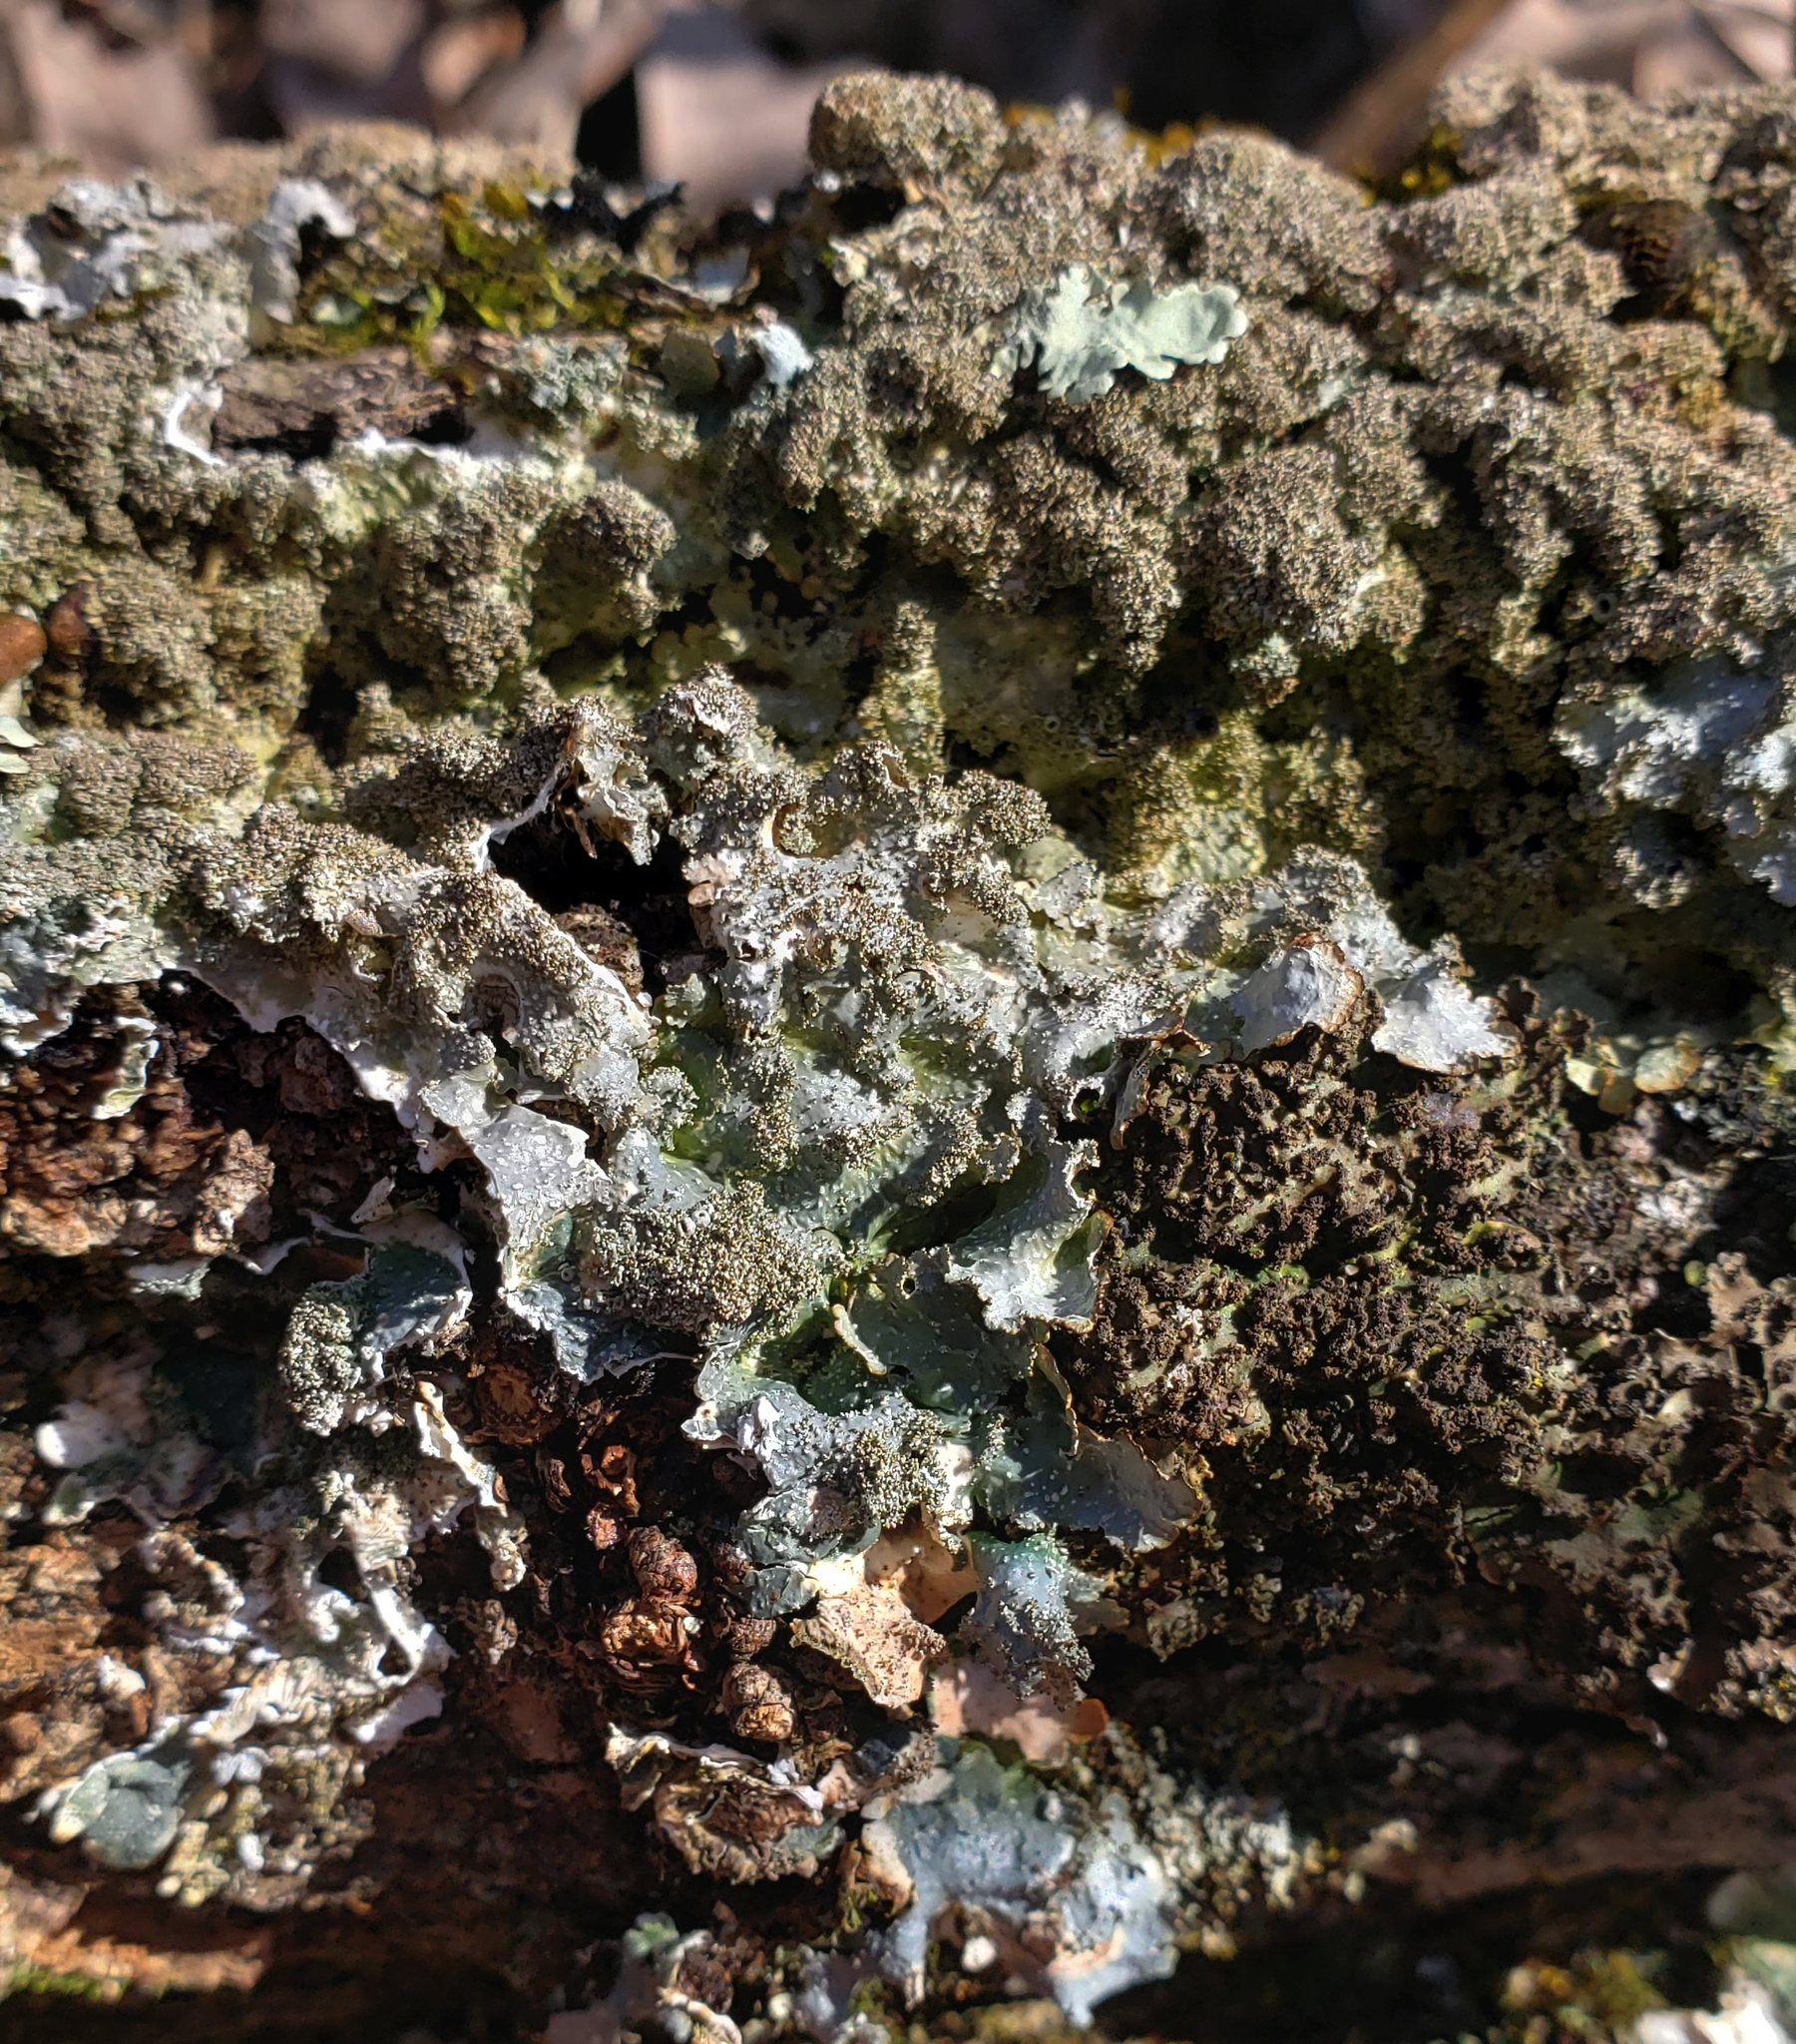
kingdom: Fungi
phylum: Ascomycota
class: Lecanoromycetes
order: Lecanorales
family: Parmeliaceae
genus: Punctelia
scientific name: Punctelia rudecta
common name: Rough speckled shield lichen
